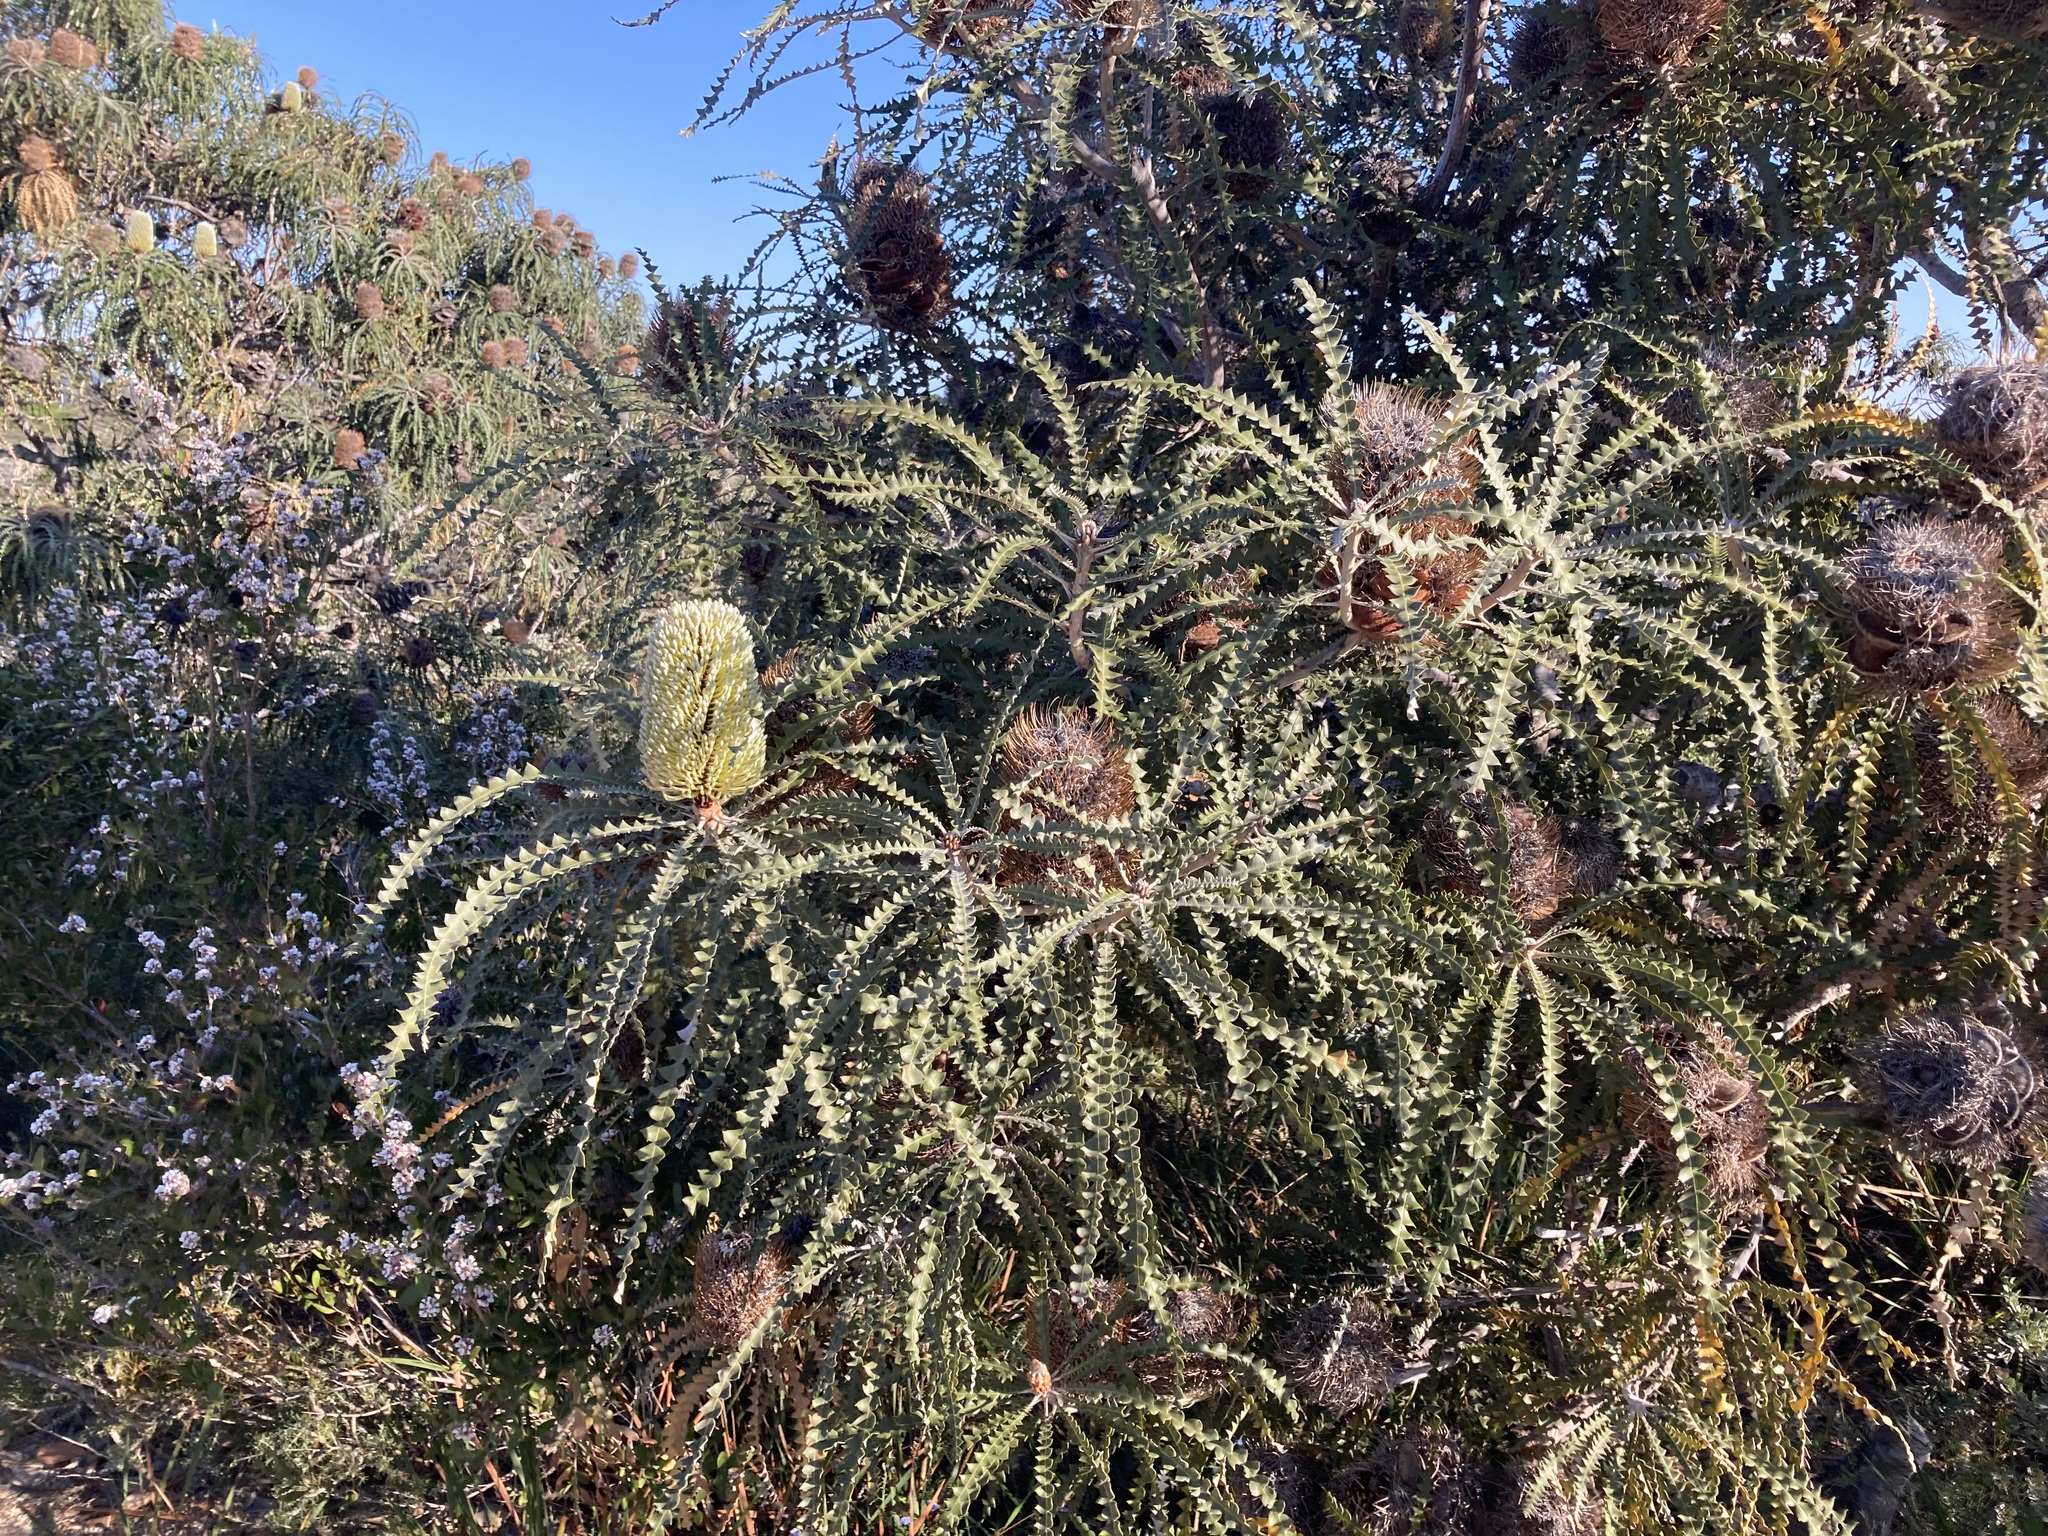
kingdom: Plantae
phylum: Tracheophyta
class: Magnoliopsida
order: Proteales
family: Proteaceae
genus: Banksia
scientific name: Banksia speciosa
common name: Showy banksia
